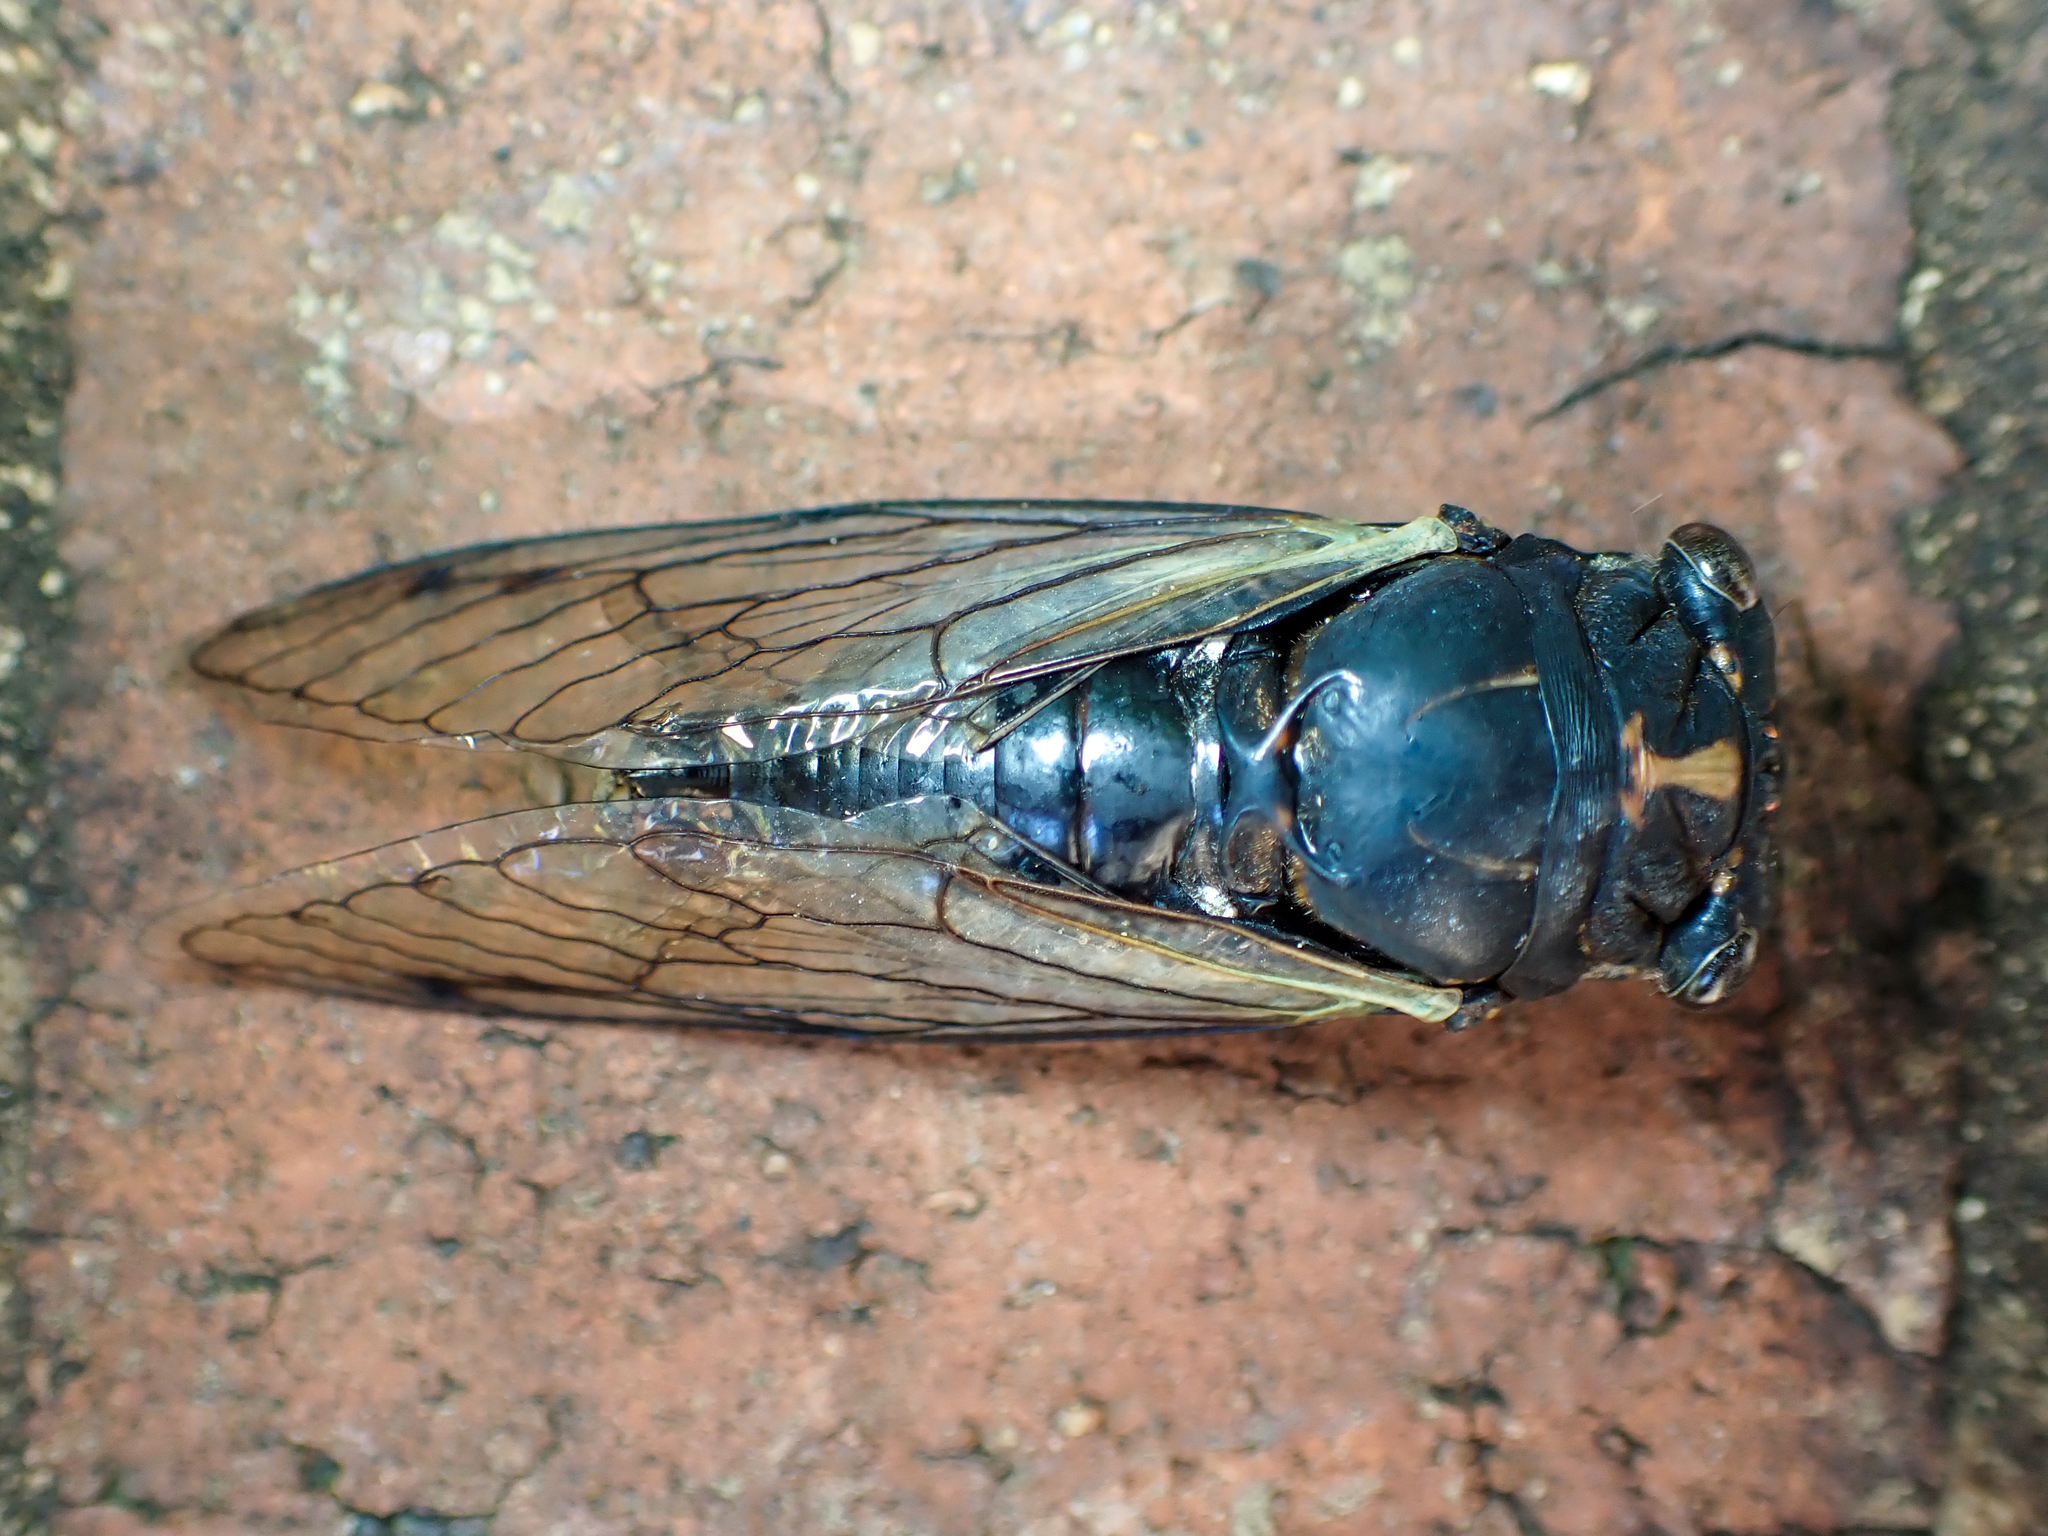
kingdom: Animalia
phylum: Arthropoda
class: Insecta
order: Hemiptera
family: Cicadidae
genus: Neotibicen
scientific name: Neotibicen lyricen
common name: Lyric cicada
